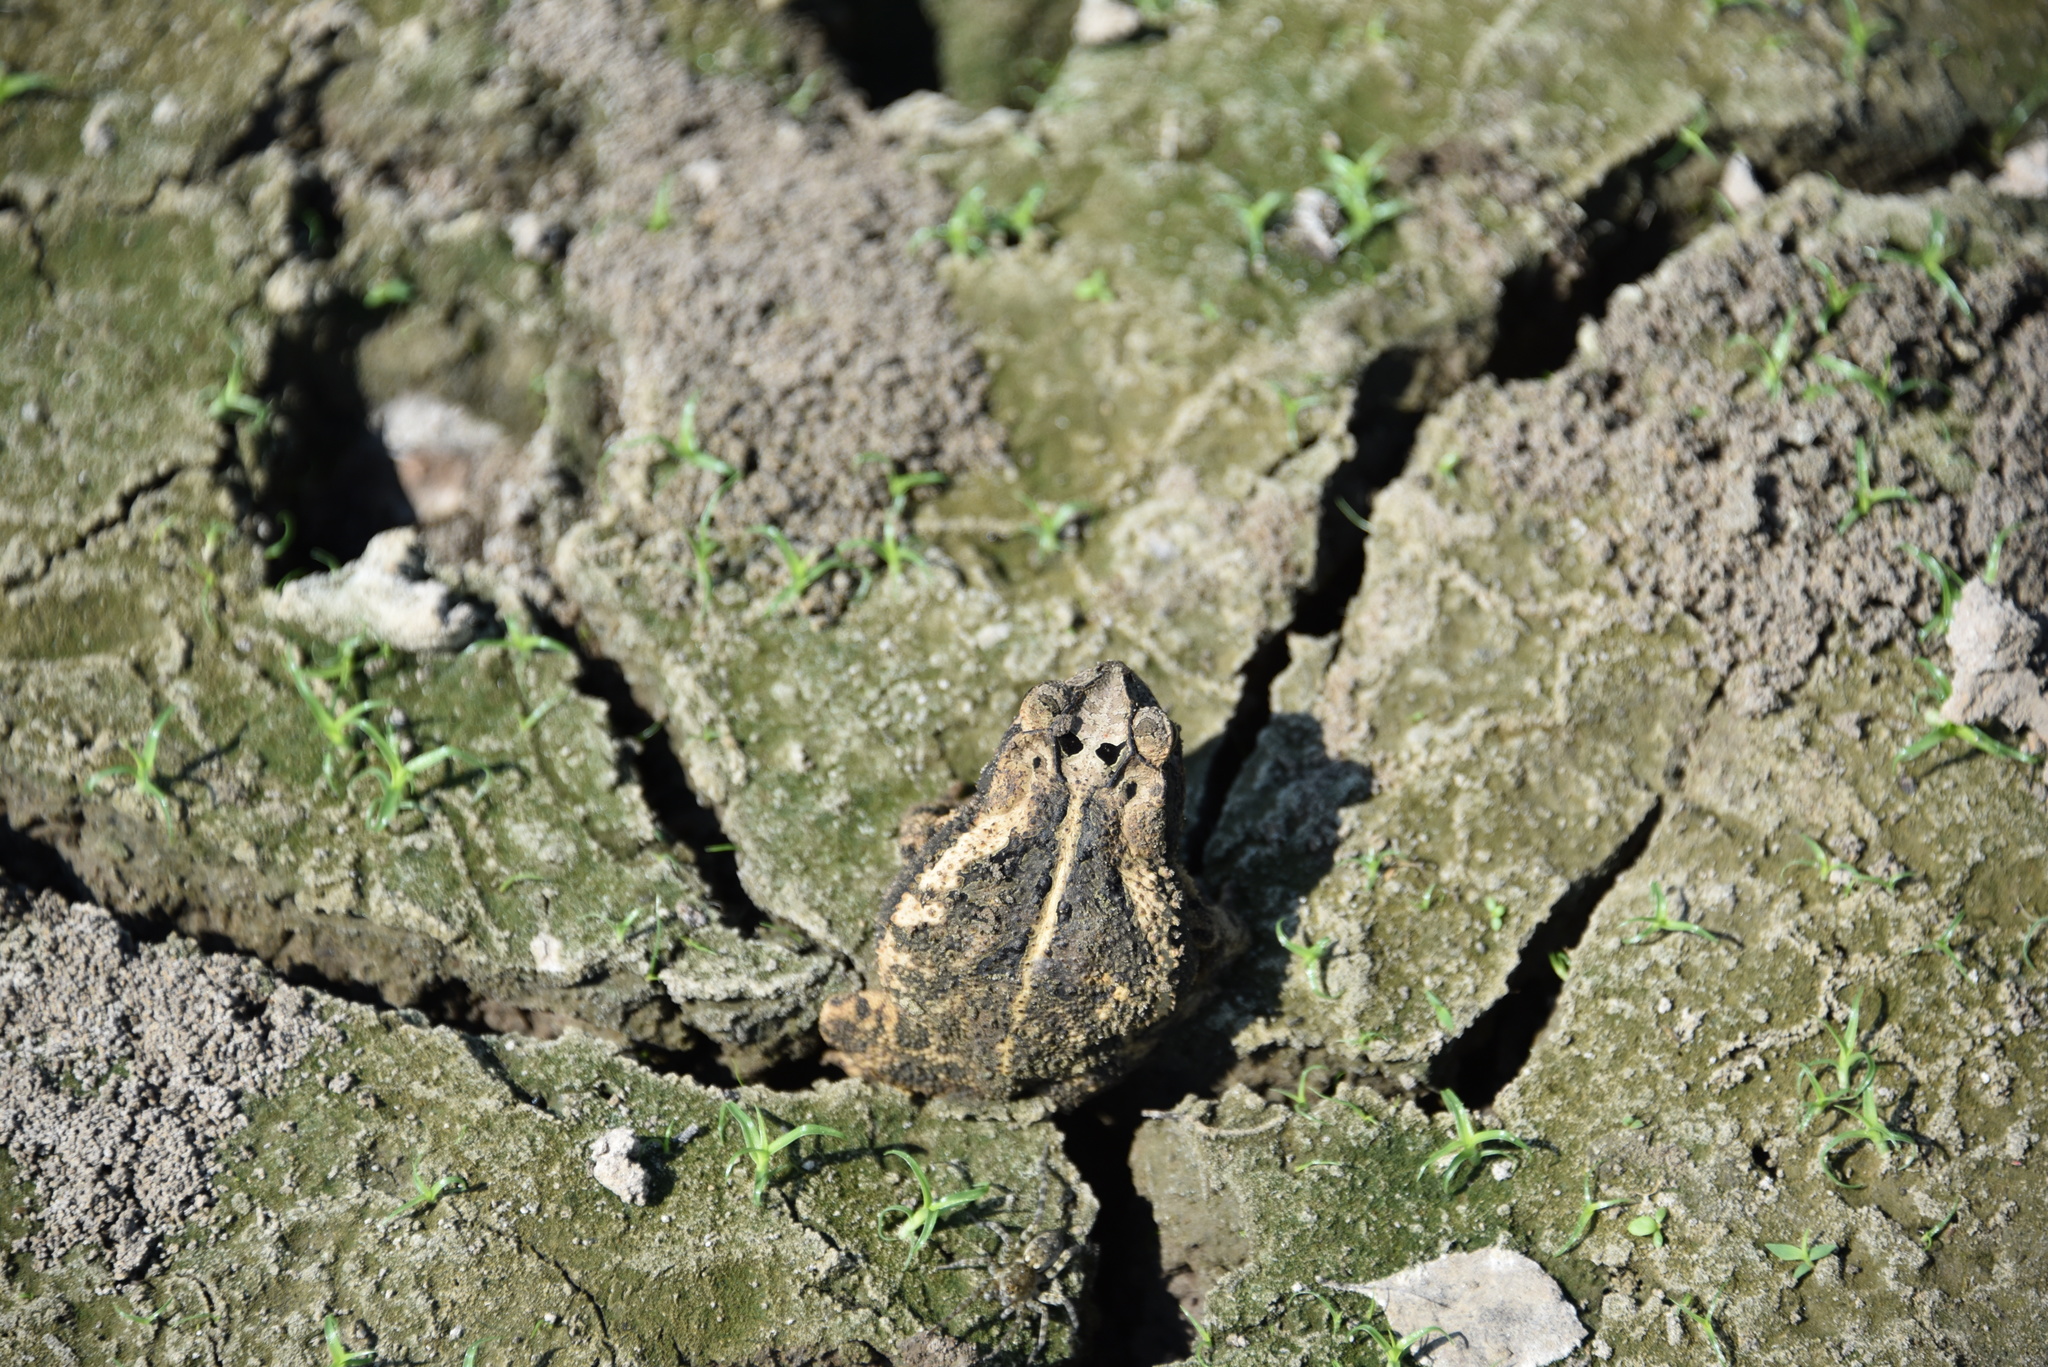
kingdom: Animalia
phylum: Chordata
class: Amphibia
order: Anura
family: Bufonidae
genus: Incilius
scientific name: Incilius nebulifer
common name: Gulf coast toad
